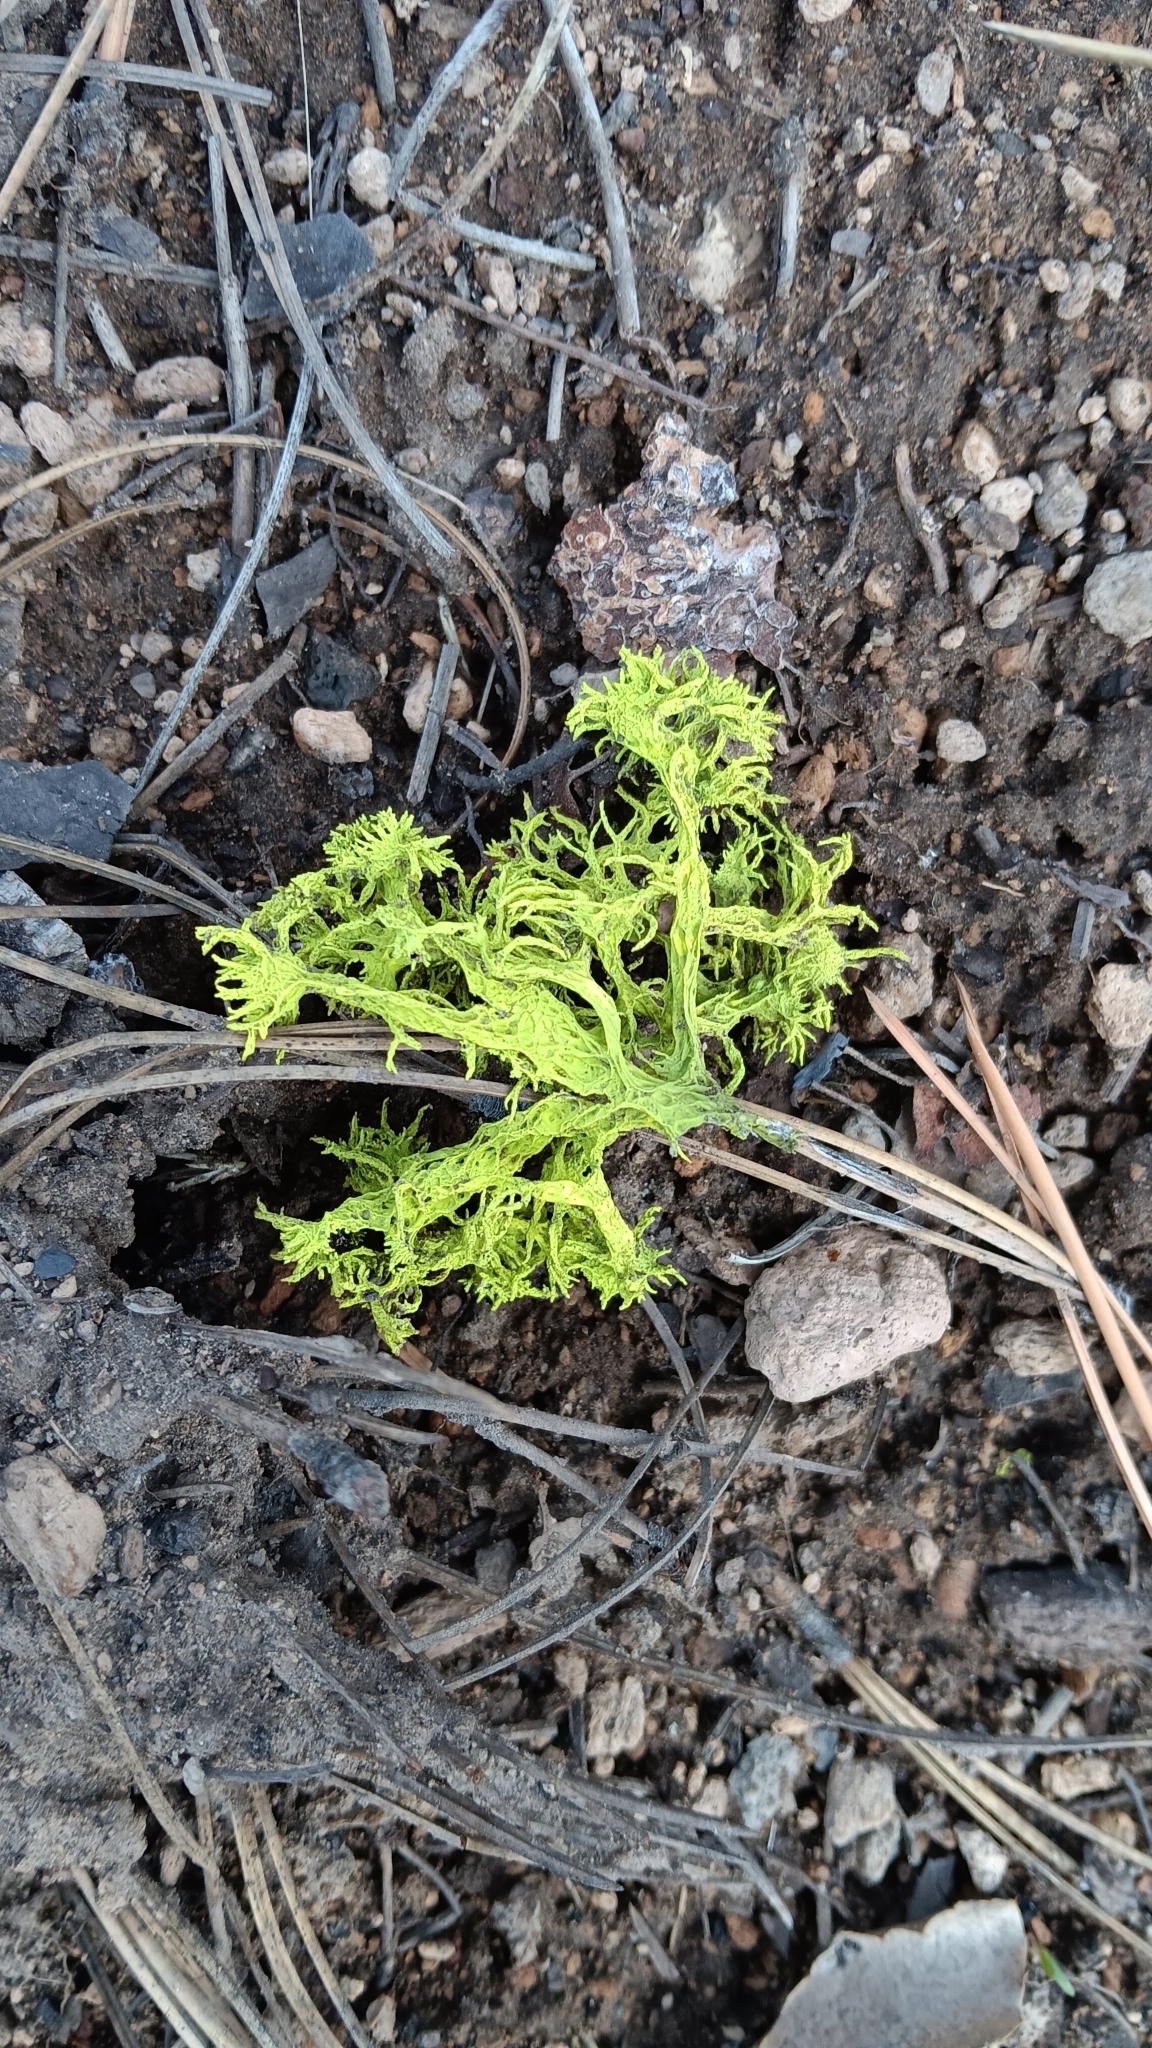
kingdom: Fungi
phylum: Ascomycota
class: Lecanoromycetes
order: Lecanorales
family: Parmeliaceae
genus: Letharia
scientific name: Letharia vulpina
